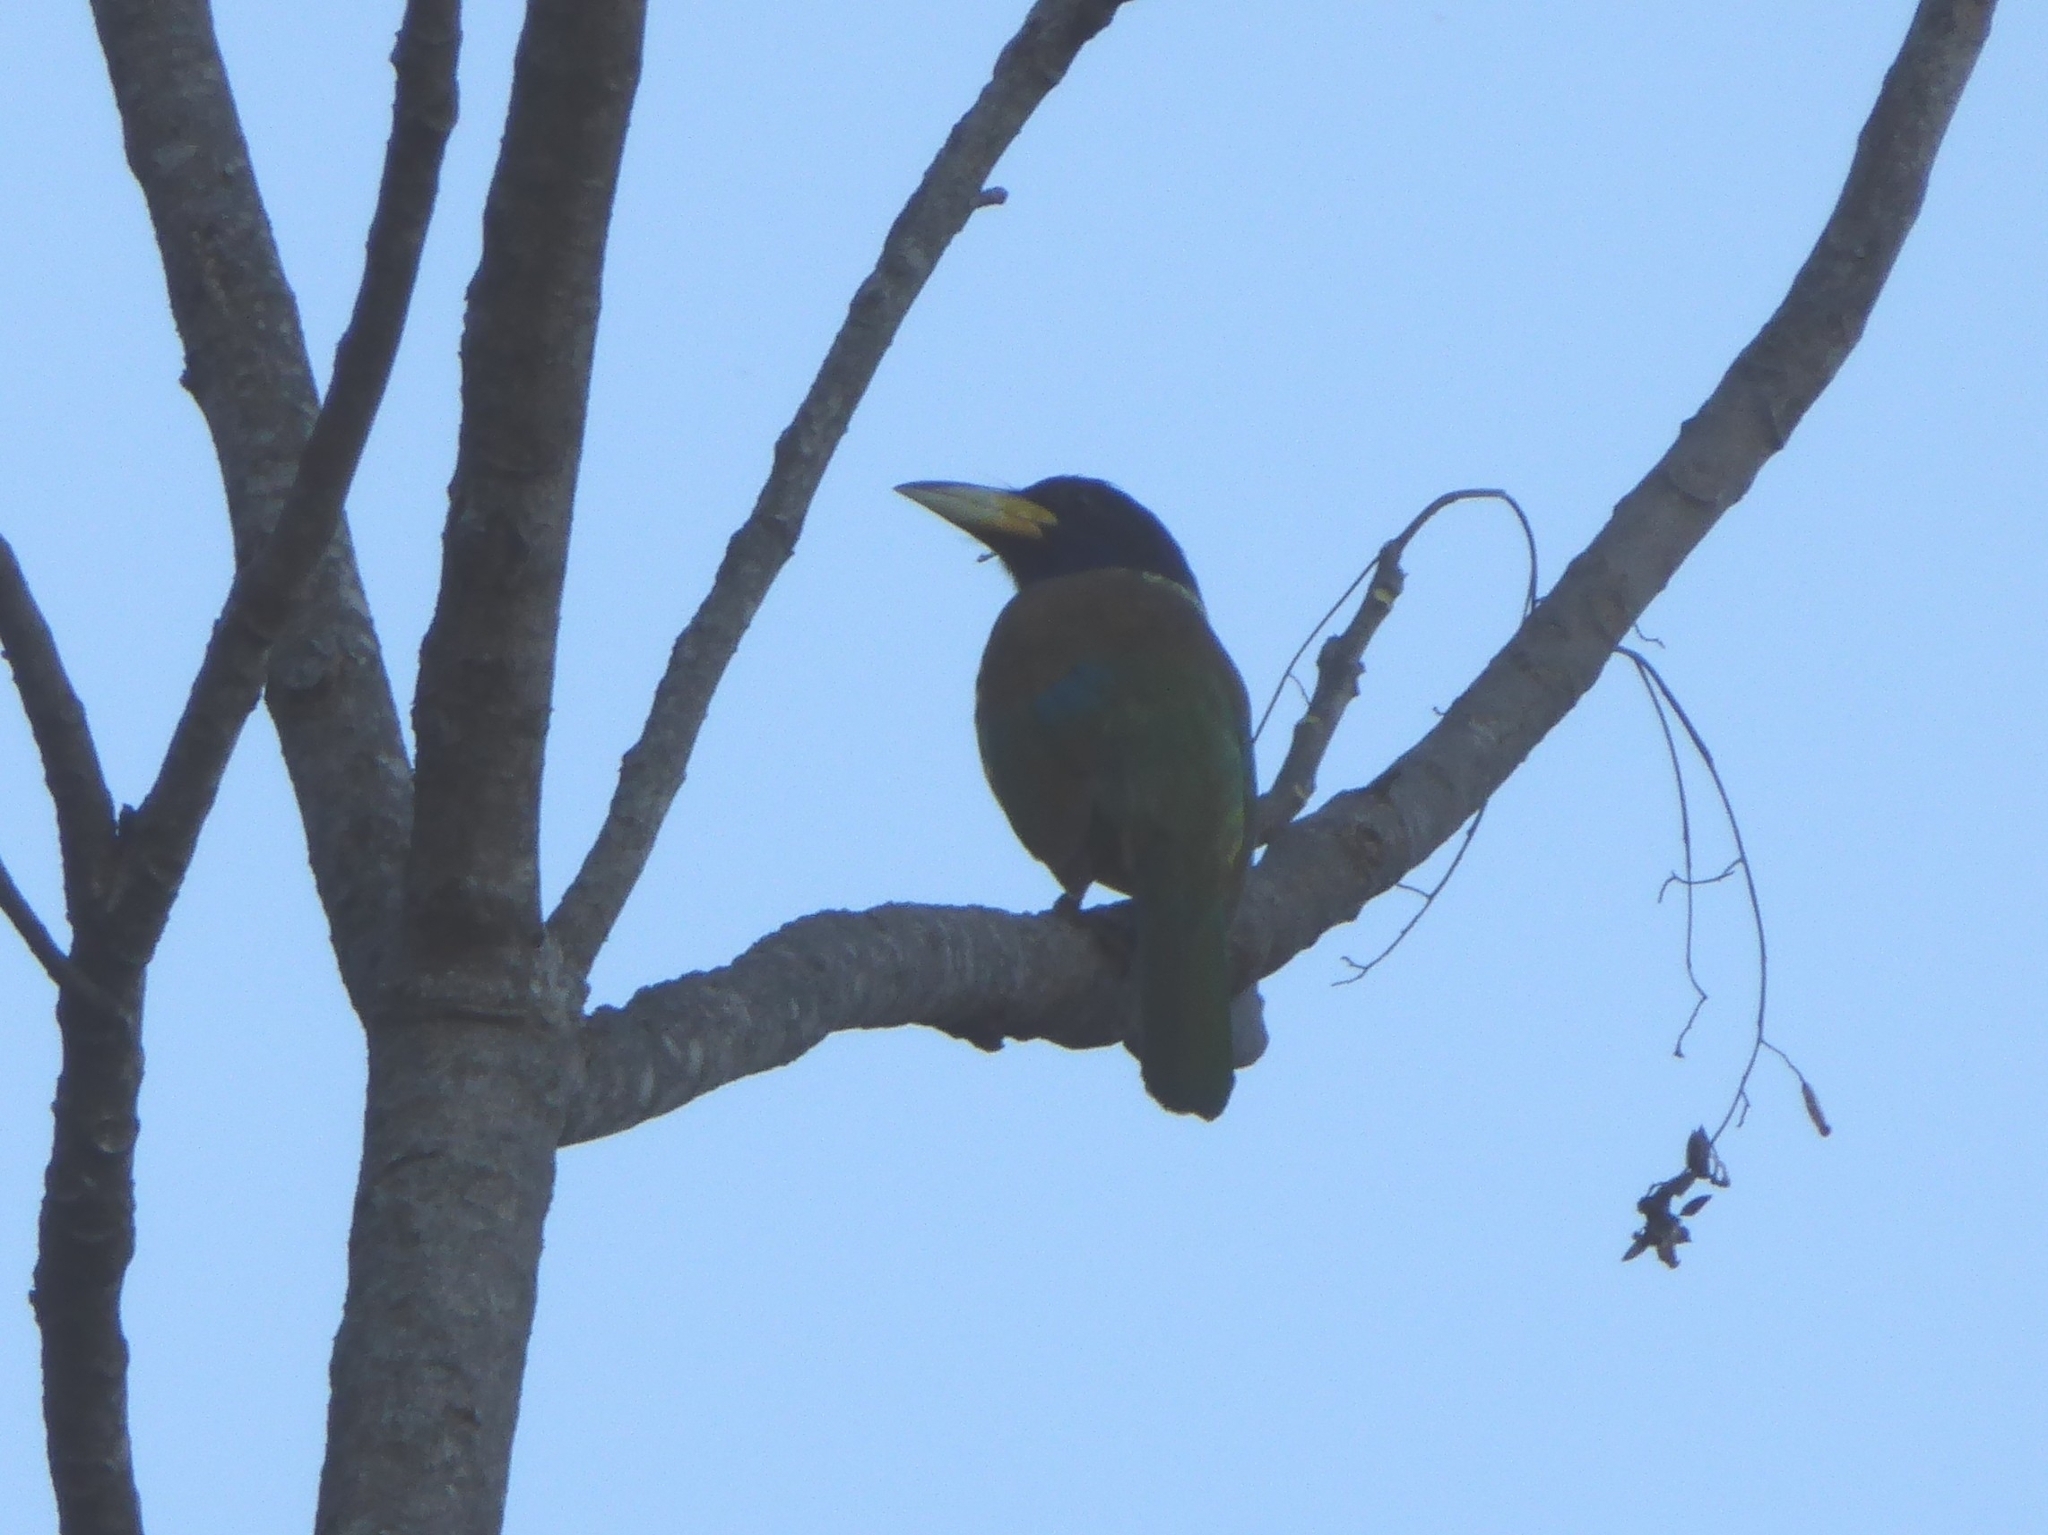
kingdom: Animalia
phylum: Chordata
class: Aves
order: Piciformes
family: Megalaimidae
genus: Psilopogon
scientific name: Psilopogon virens
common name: Great barbet
